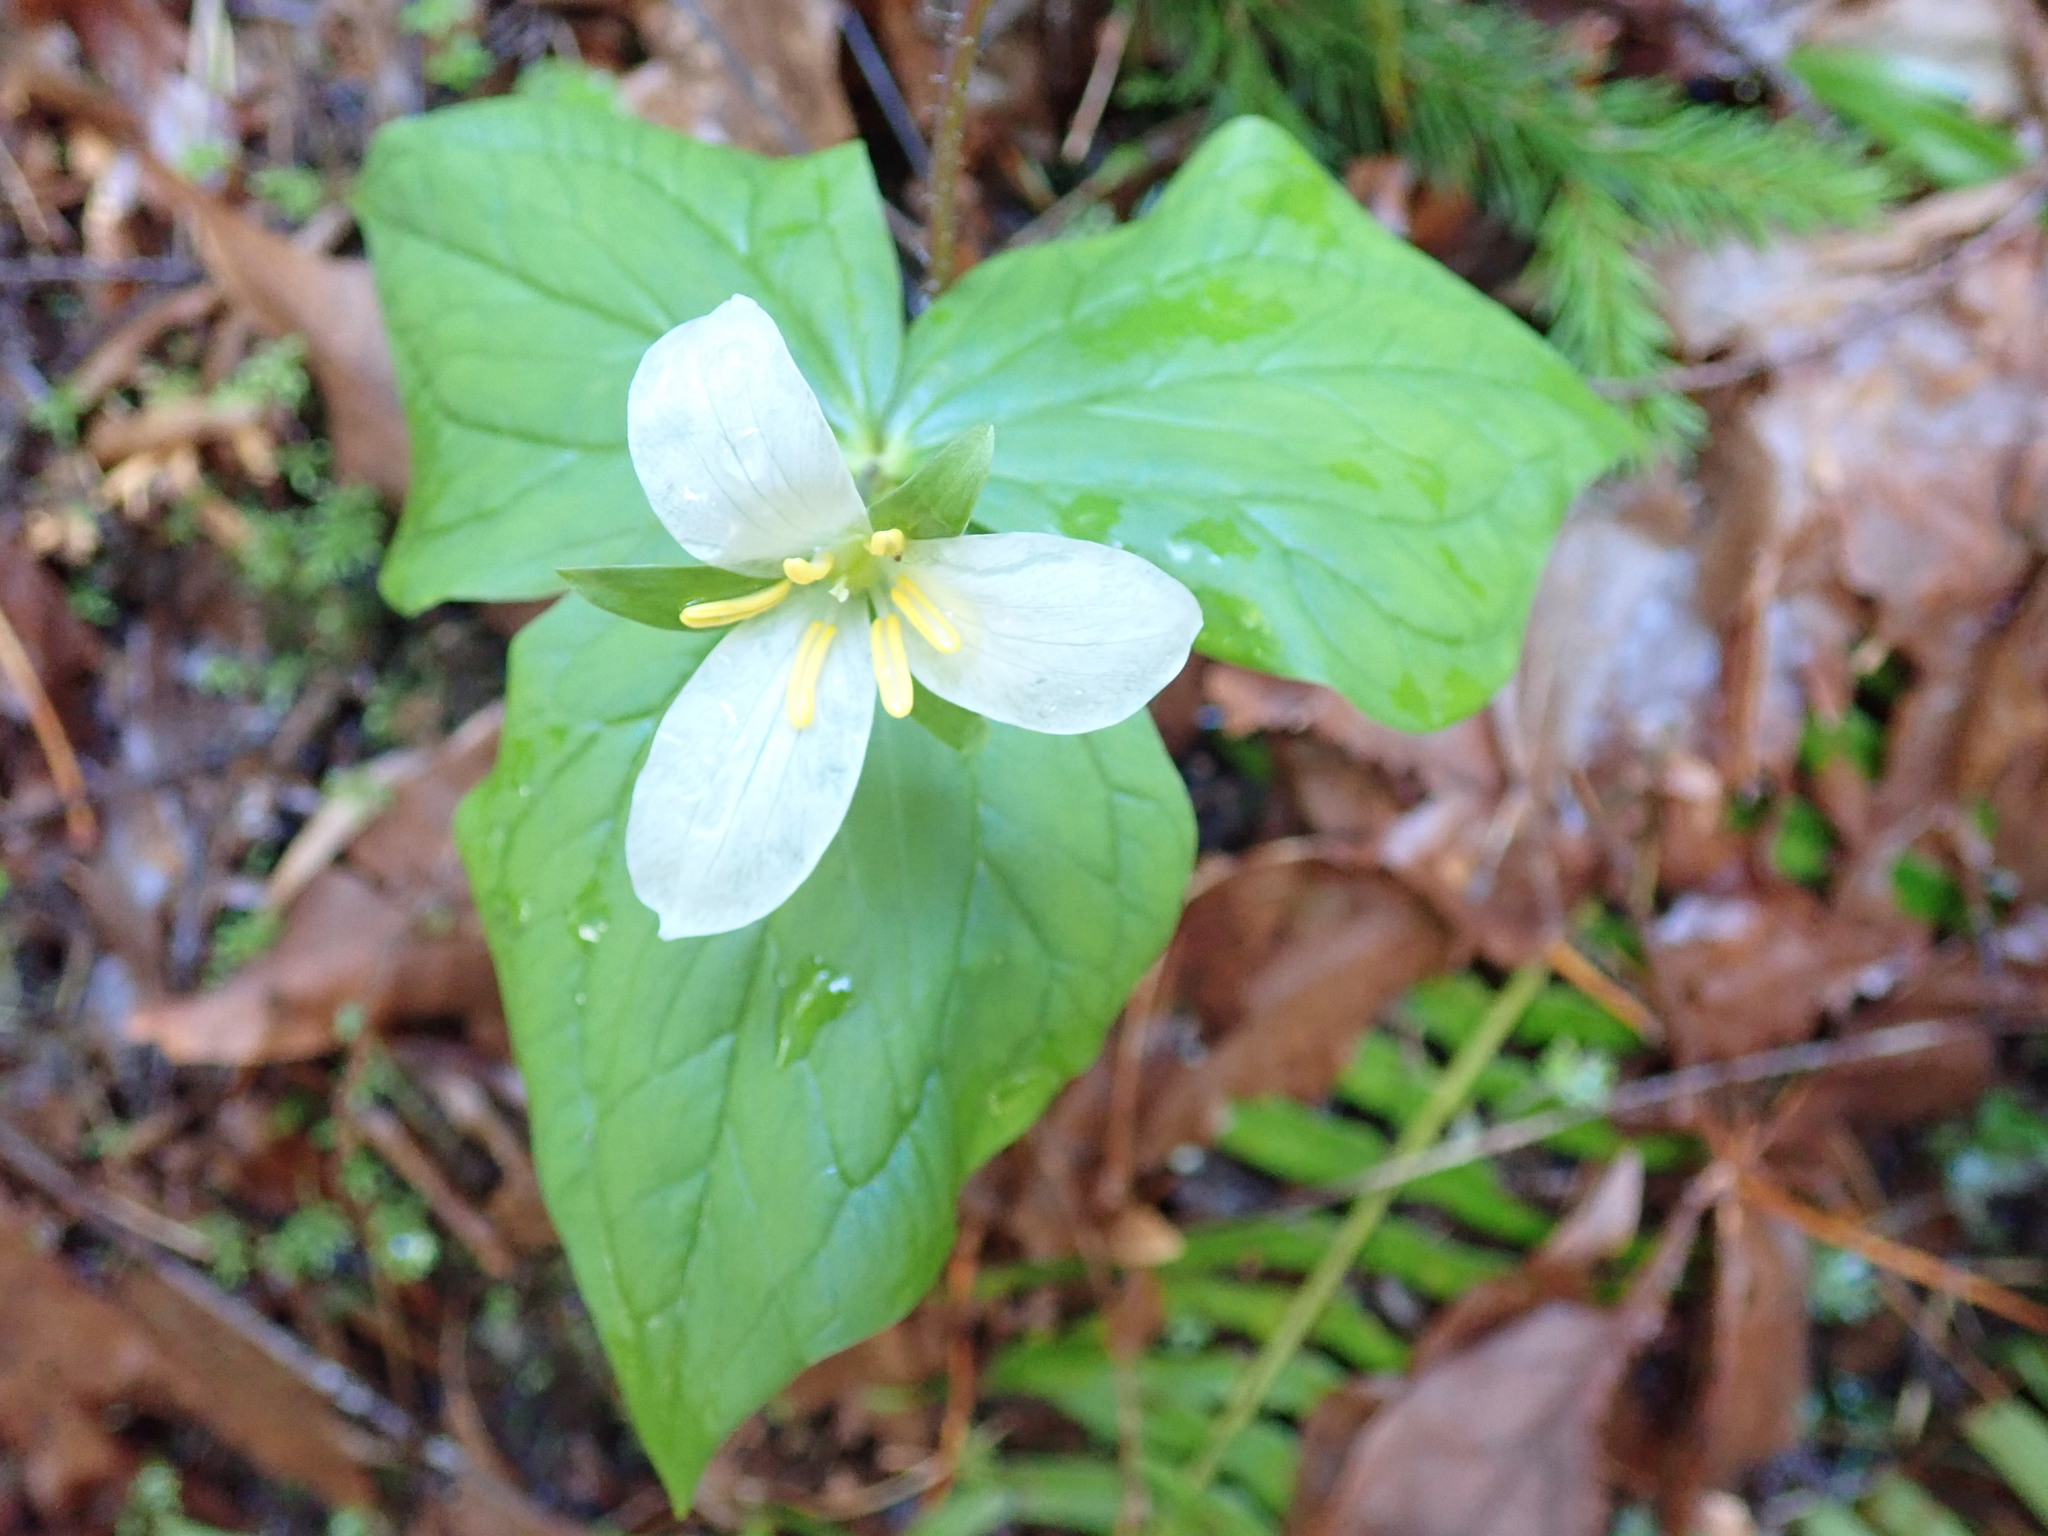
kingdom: Plantae
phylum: Tracheophyta
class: Liliopsida
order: Liliales
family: Melanthiaceae
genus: Trillium
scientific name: Trillium ovatum
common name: Pacific trillium
